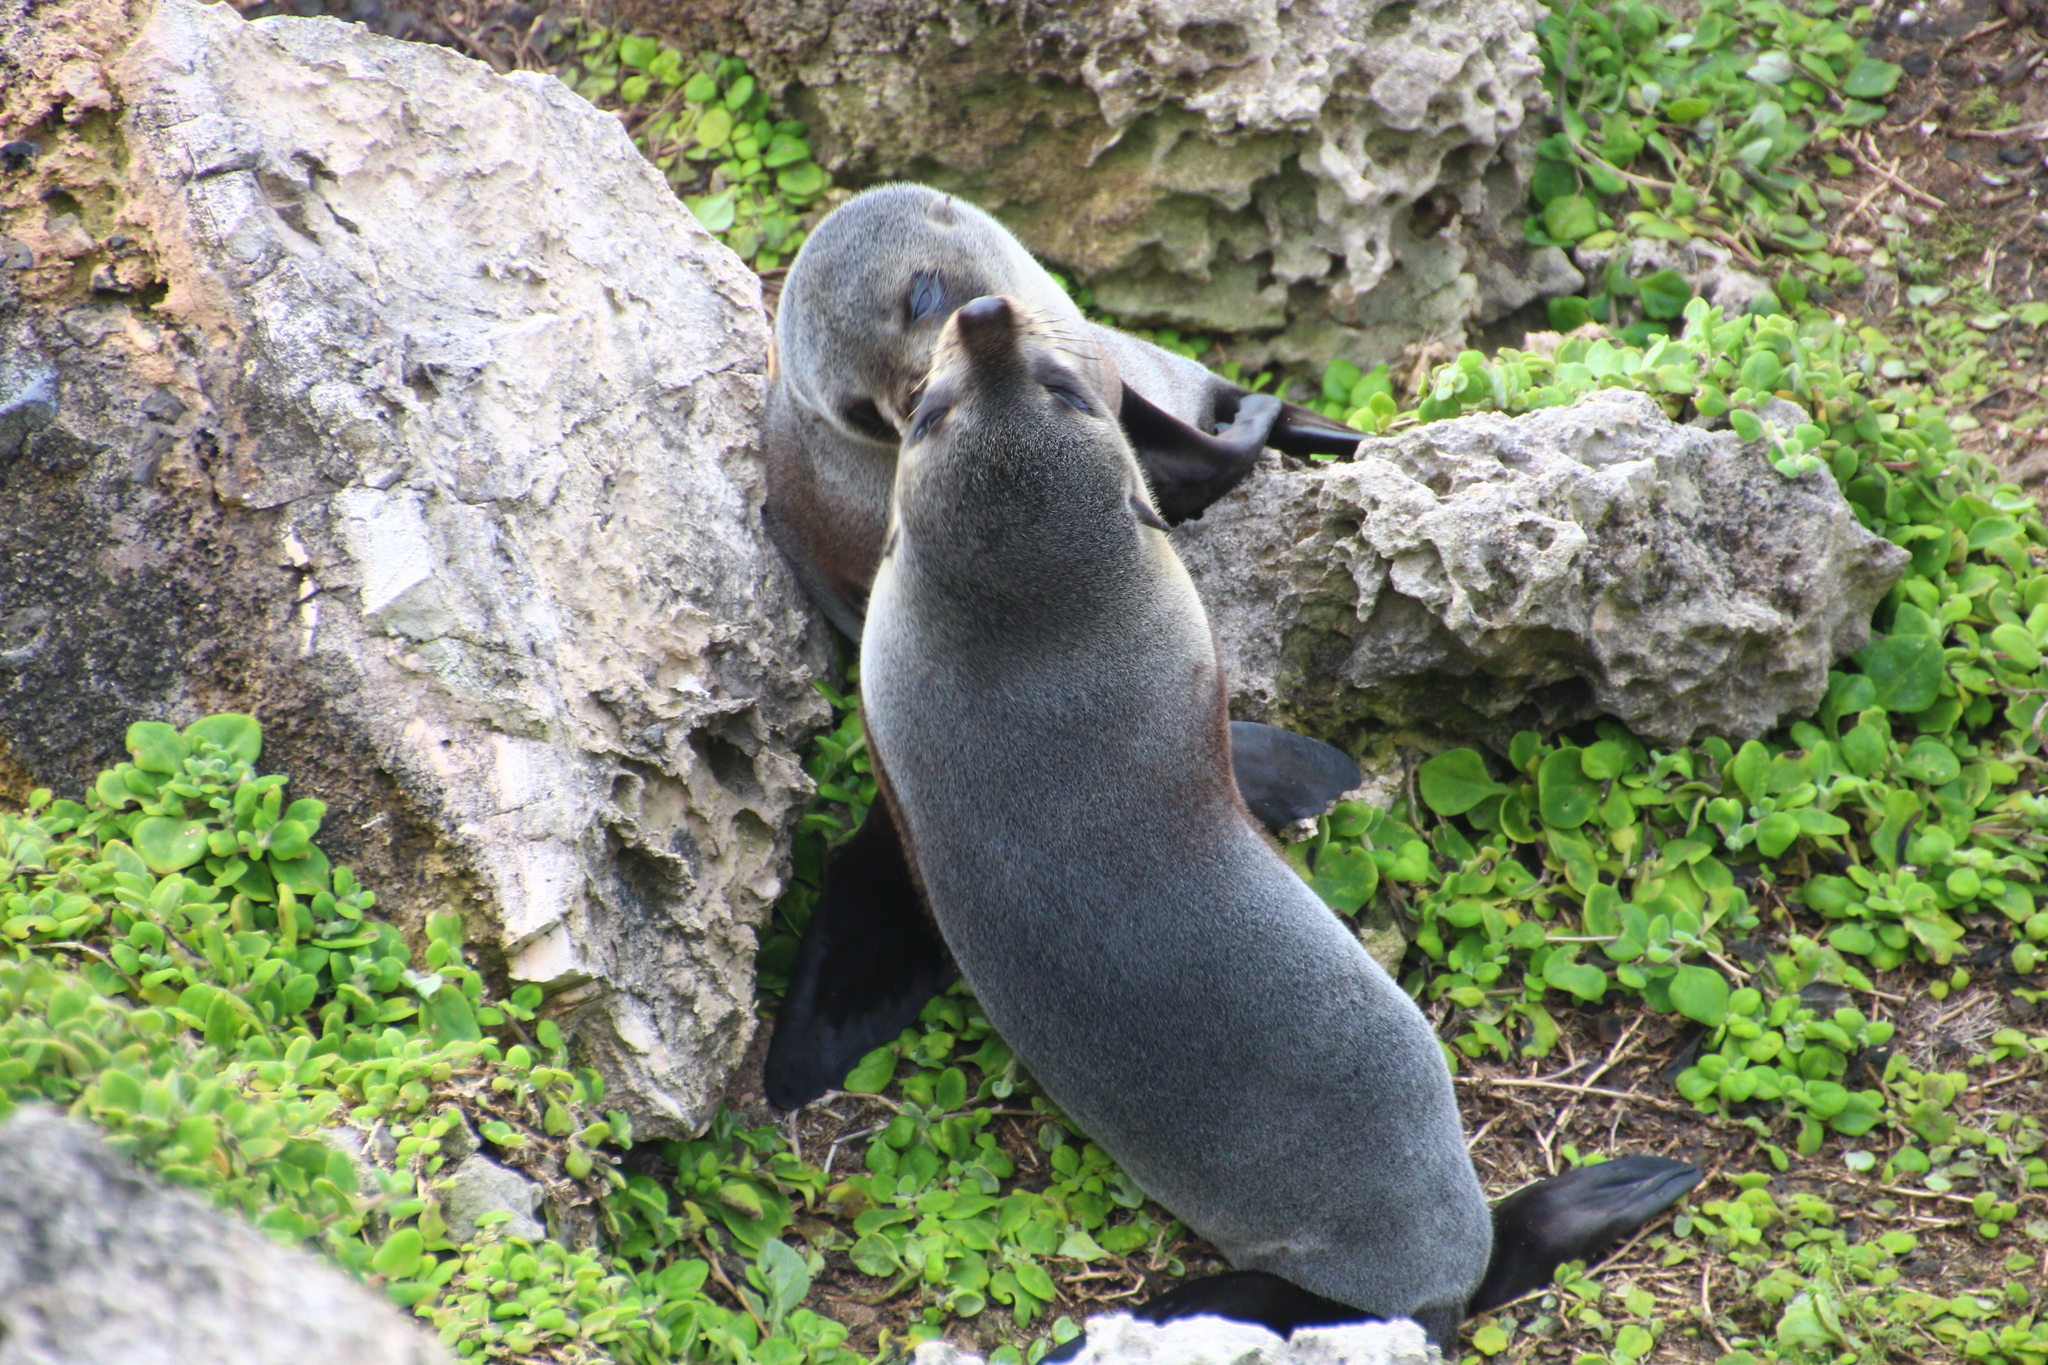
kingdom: Animalia
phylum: Chordata
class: Mammalia
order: Carnivora
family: Otariidae
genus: Arctocephalus
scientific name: Arctocephalus forsteri
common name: New zealand fur seal
